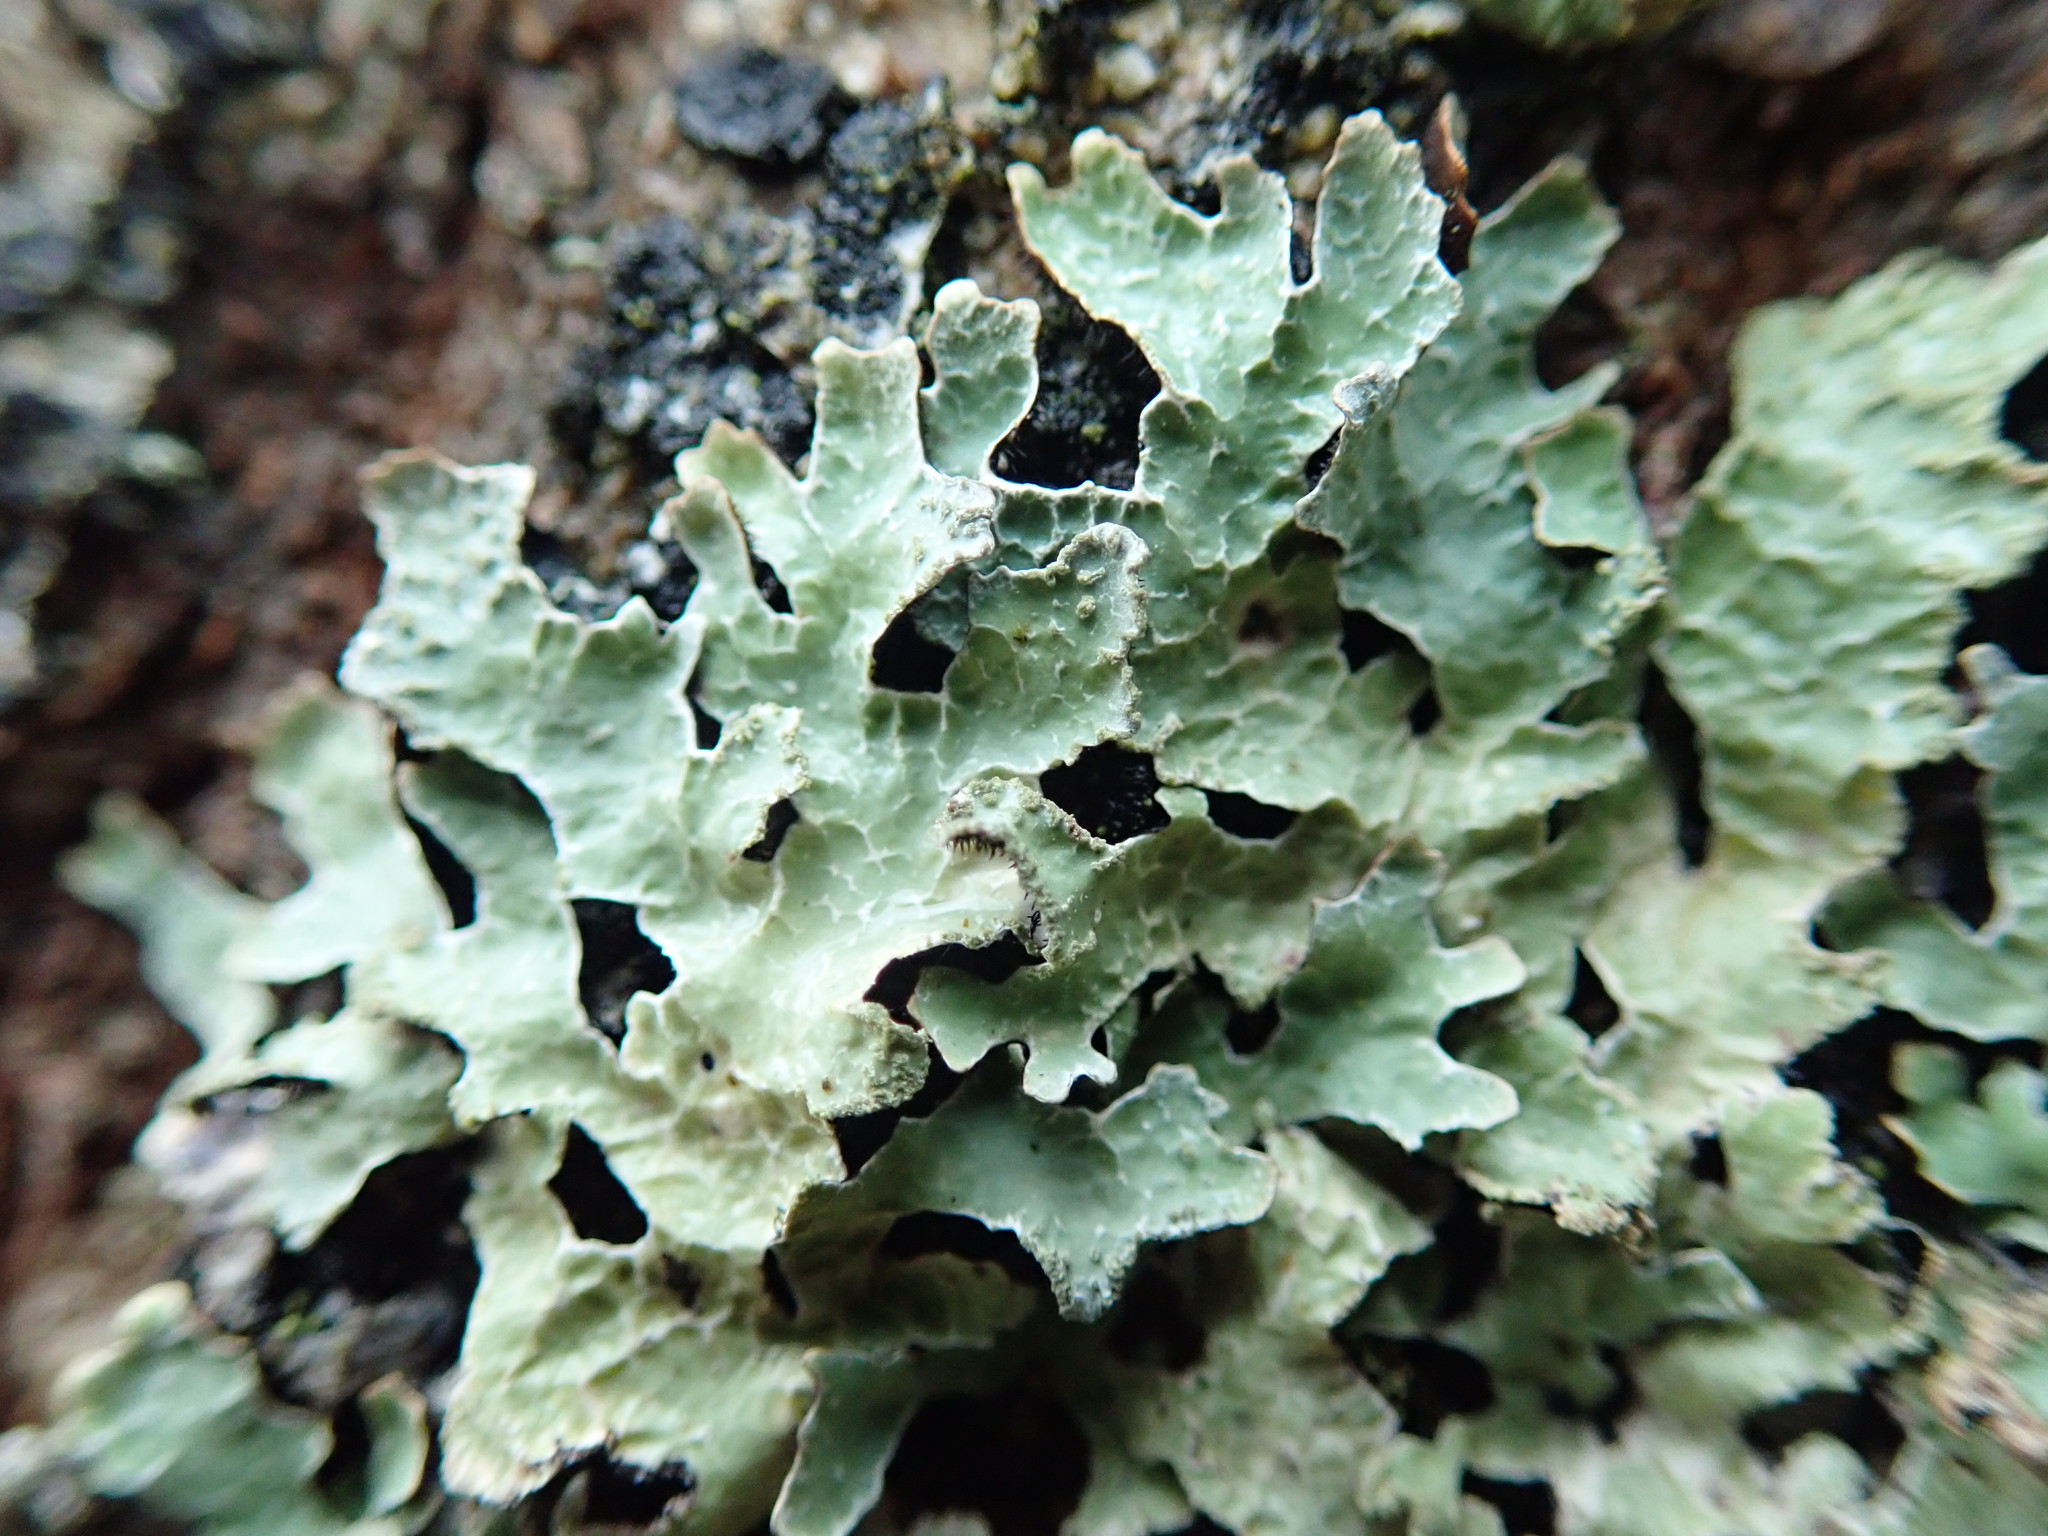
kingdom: Fungi
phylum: Ascomycota
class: Lecanoromycetes
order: Lecanorales
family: Parmeliaceae
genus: Parmelia
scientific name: Parmelia sulcata
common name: Netted shield lichen
